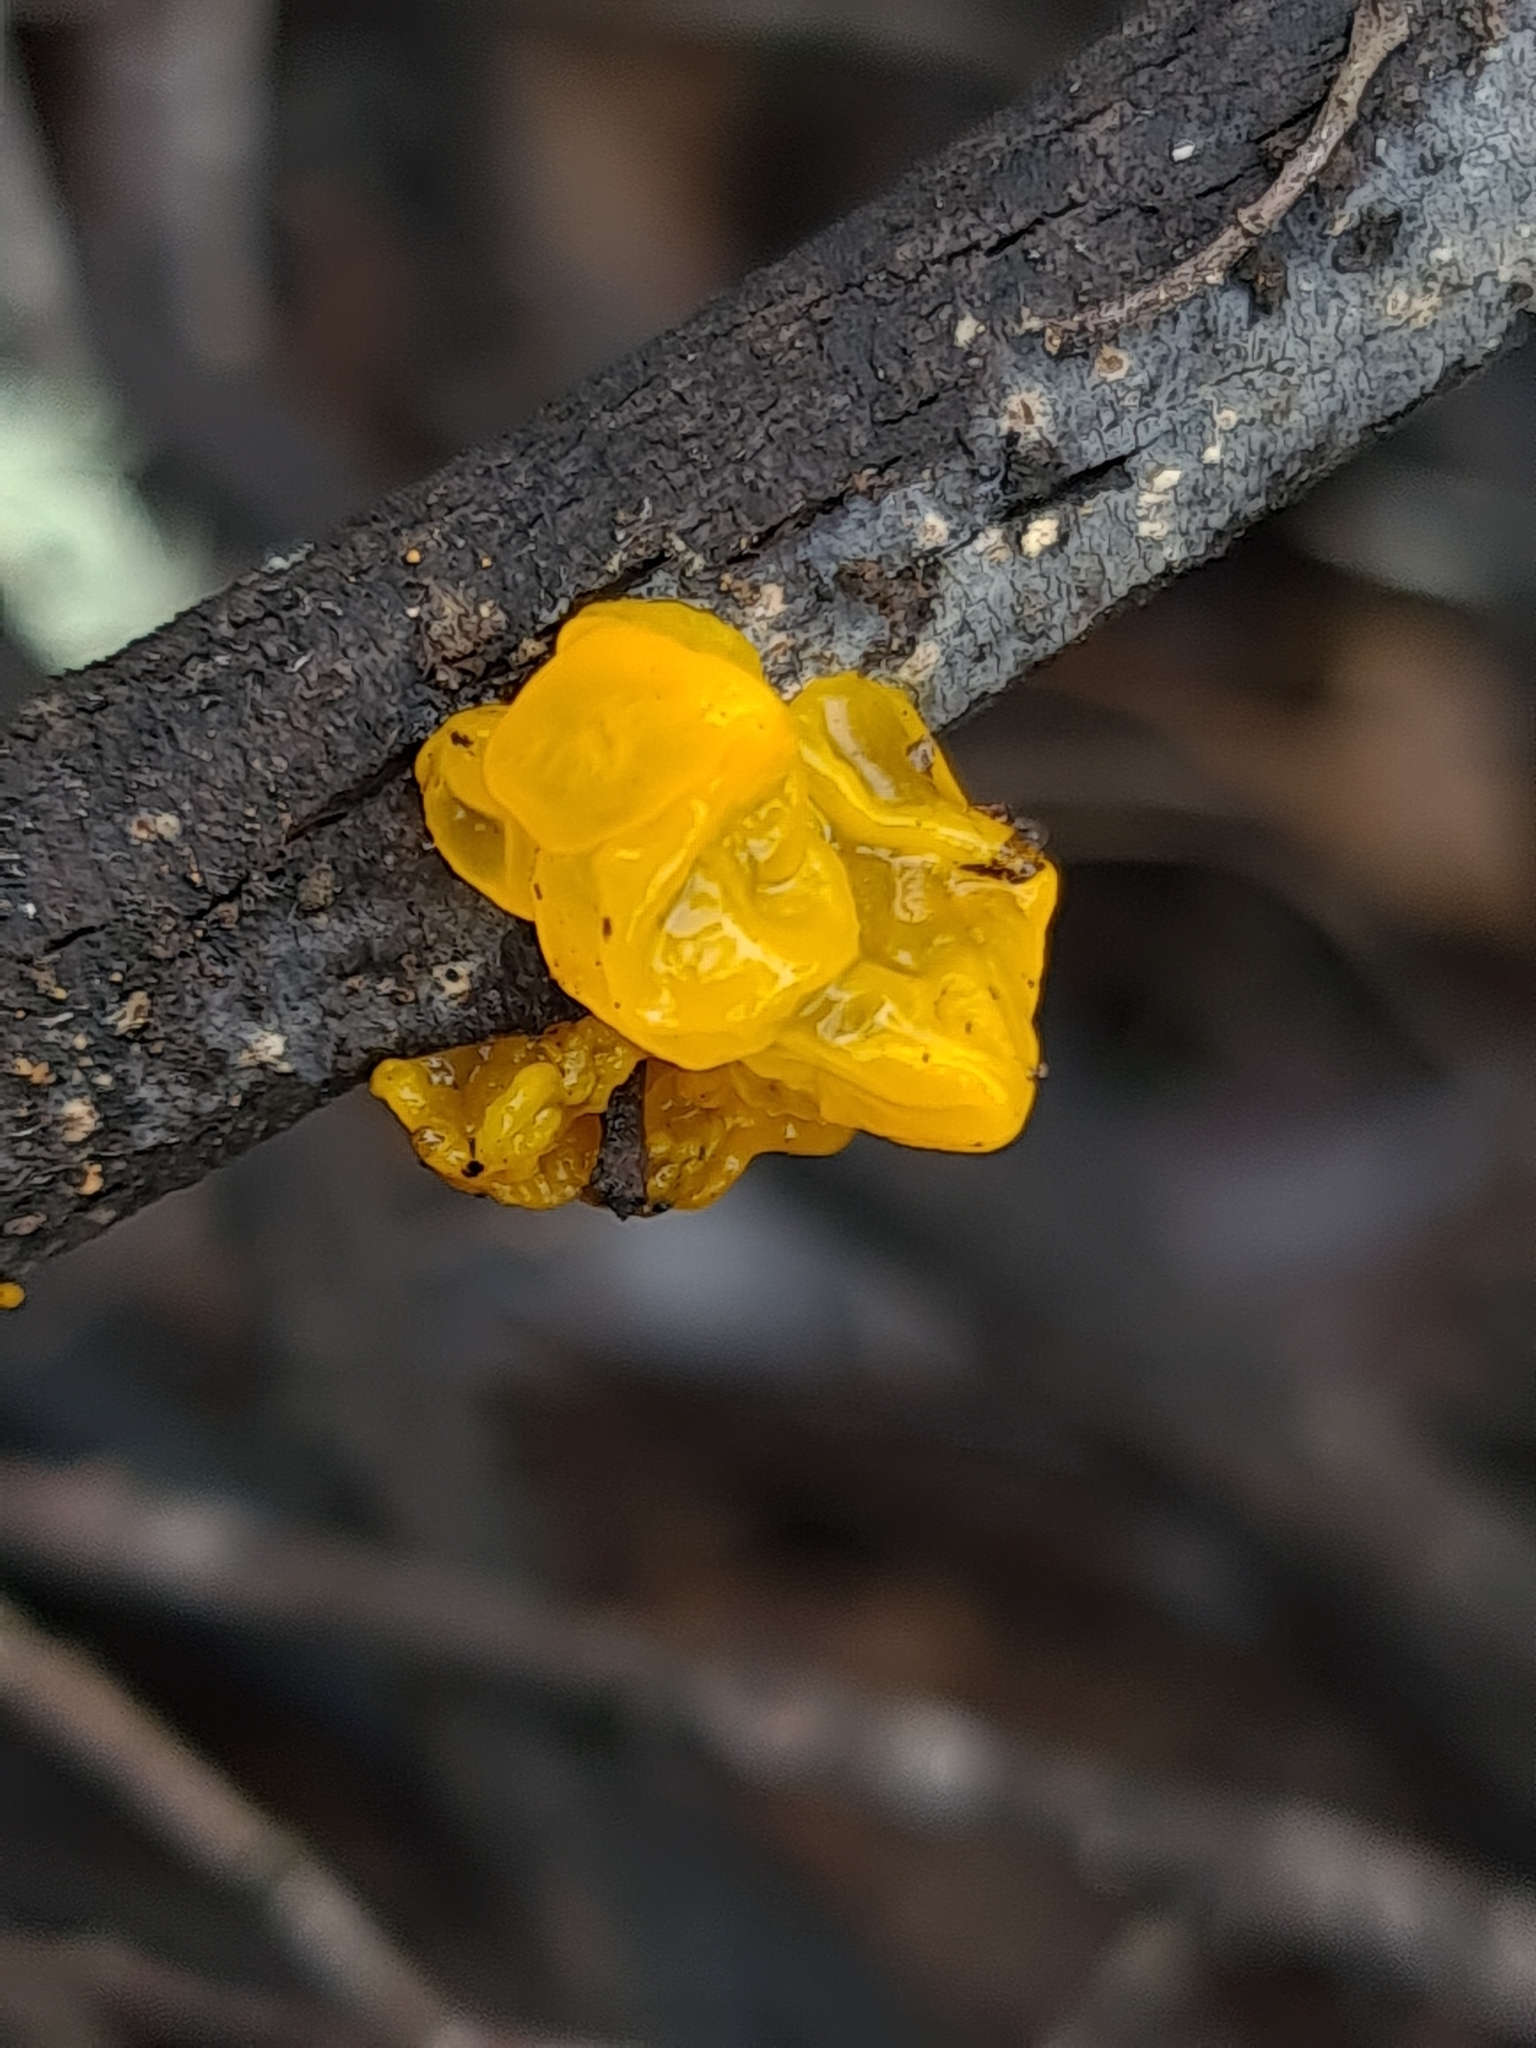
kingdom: Fungi
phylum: Basidiomycota
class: Tremellomycetes
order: Tremellales
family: Tremellaceae
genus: Tremella
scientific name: Tremella mesenterica
